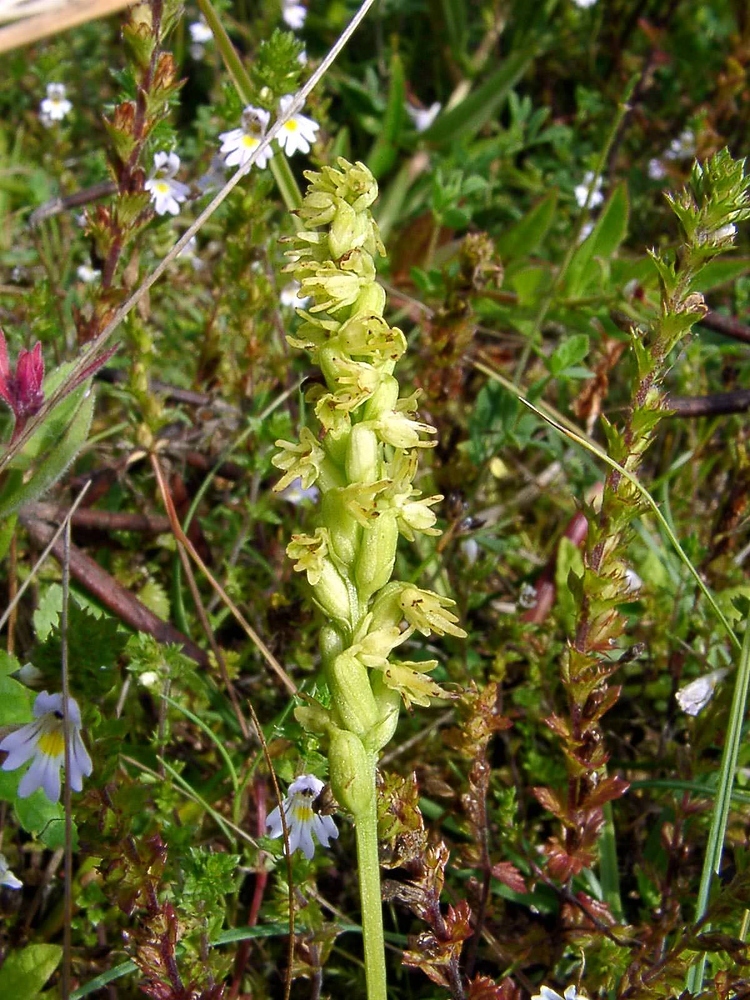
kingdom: Plantae
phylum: Tracheophyta
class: Liliopsida
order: Asparagales
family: Orchidaceae
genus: Herminium
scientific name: Herminium monorchis
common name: Musk orchid
